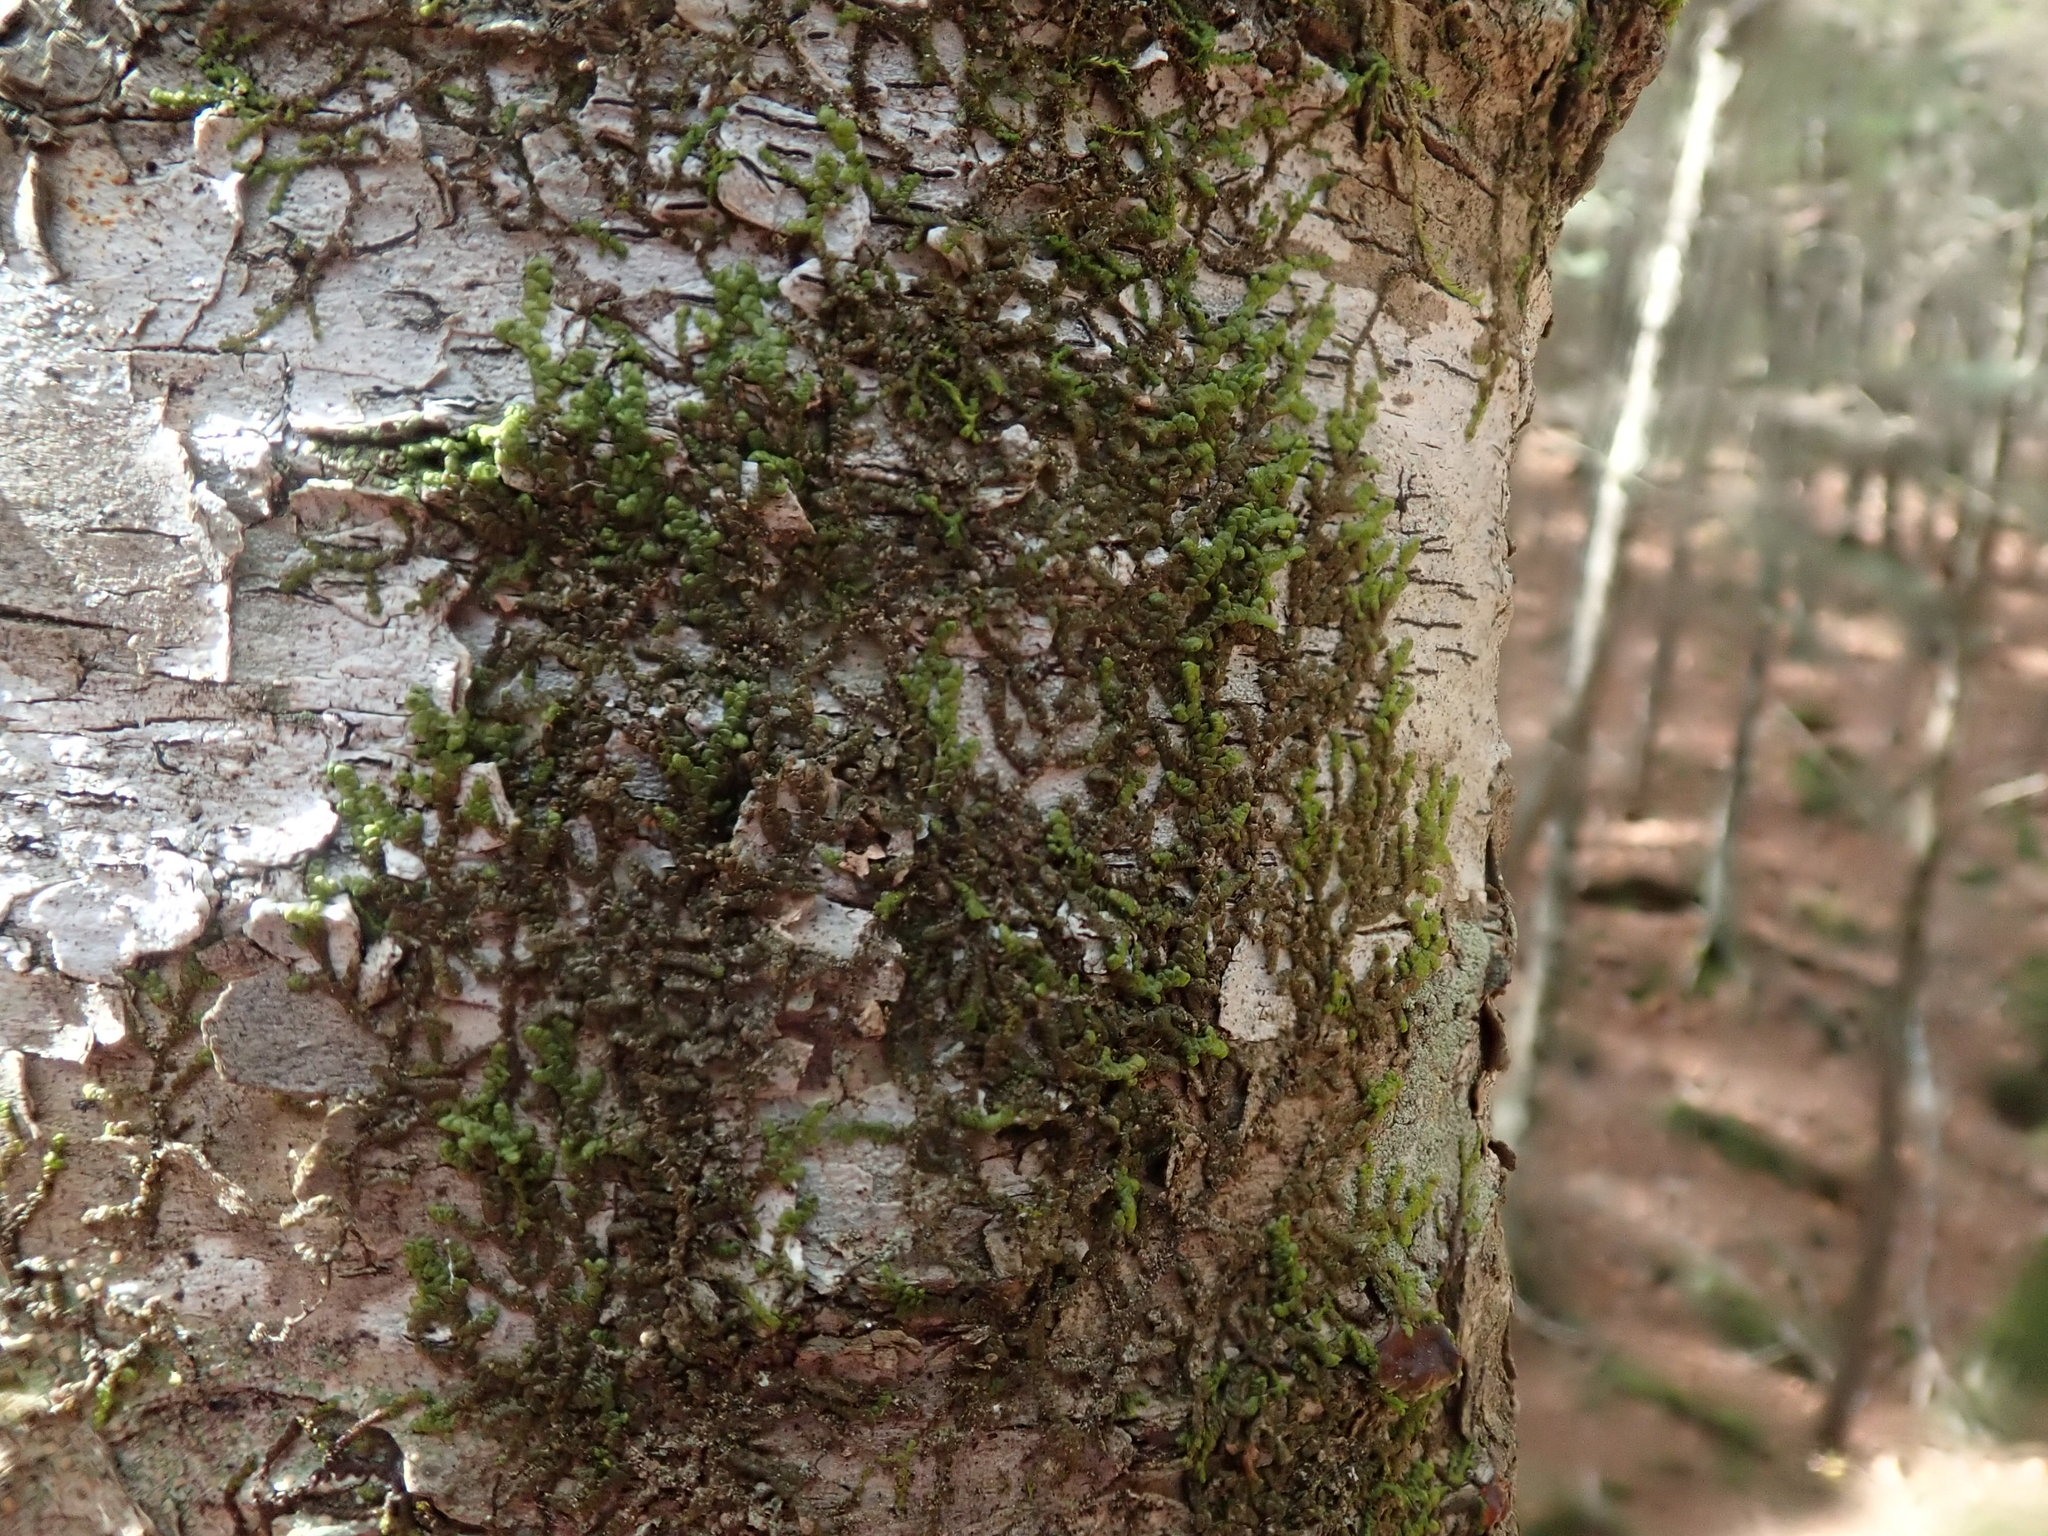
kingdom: Plantae
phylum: Marchantiophyta
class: Jungermanniopsida
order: Porellales
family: Frullaniaceae
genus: Frullania
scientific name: Frullania
